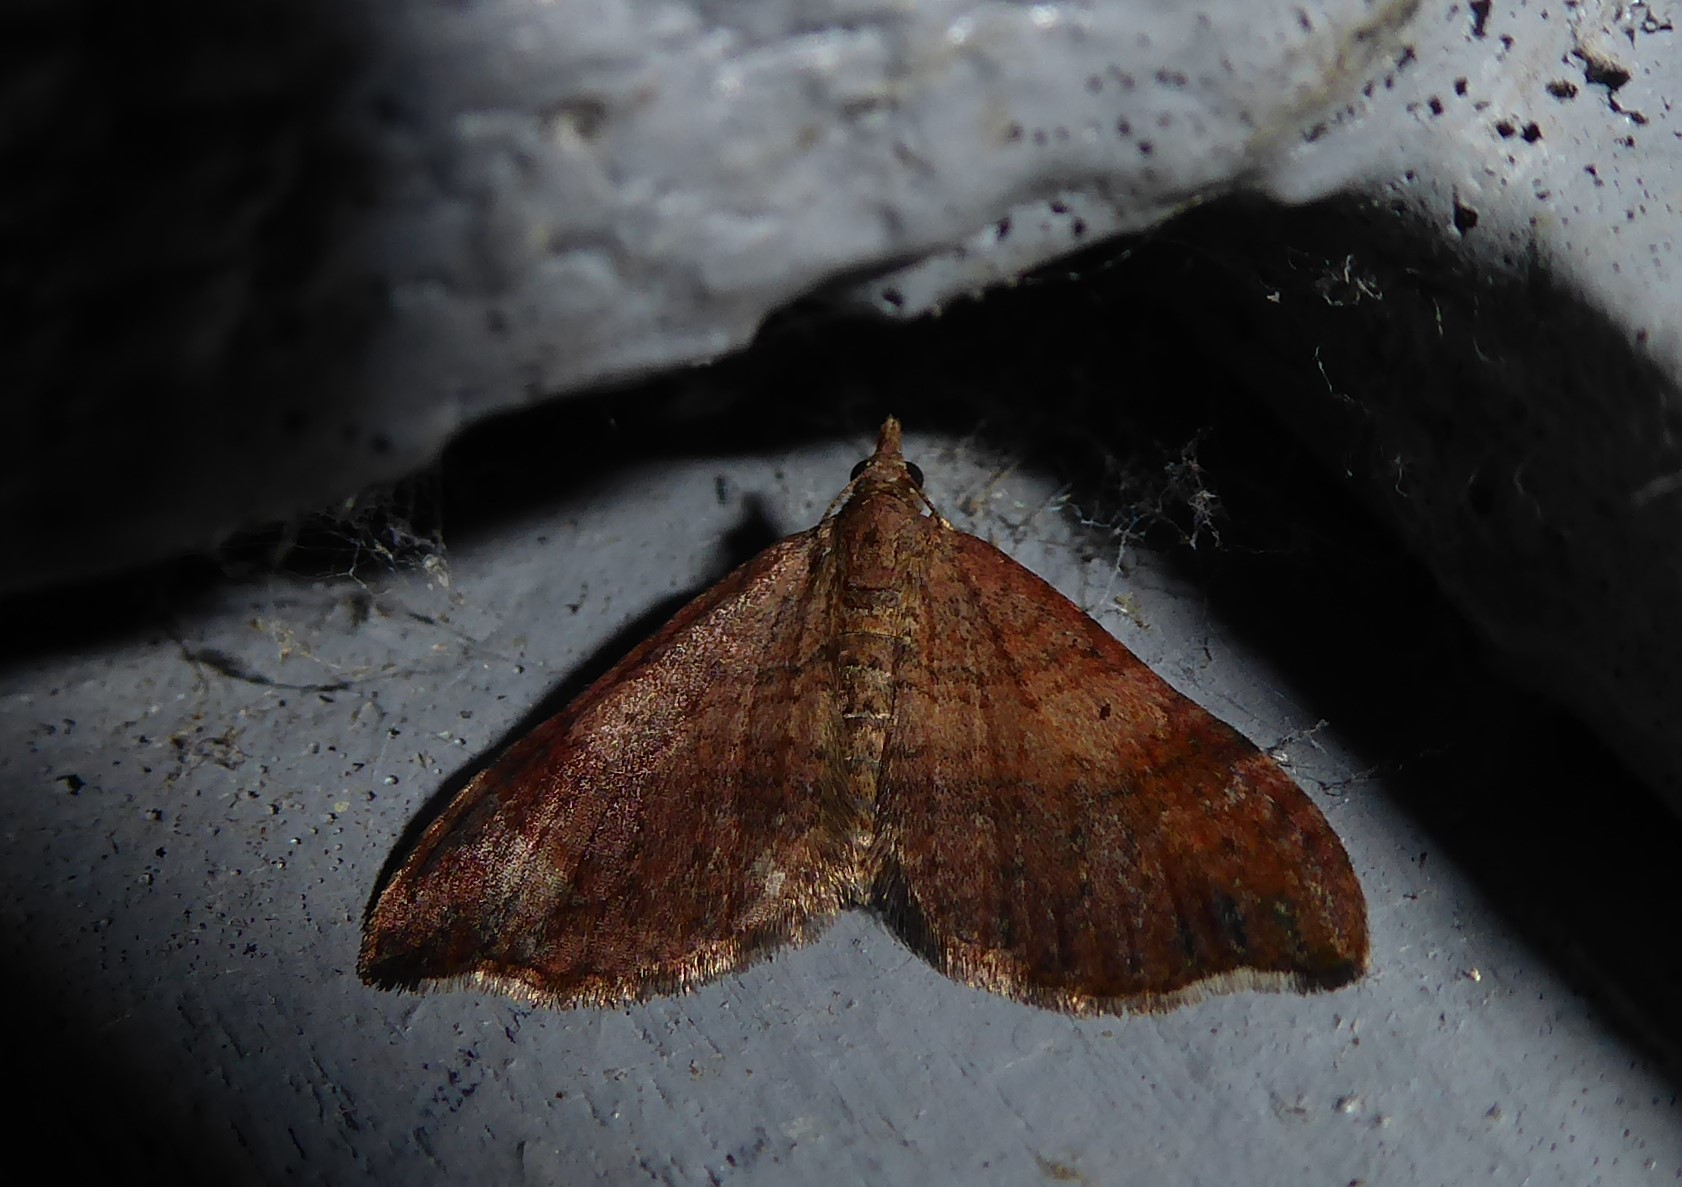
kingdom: Animalia
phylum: Arthropoda
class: Insecta
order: Lepidoptera
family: Geometridae
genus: Homodotis
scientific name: Homodotis megaspilata
